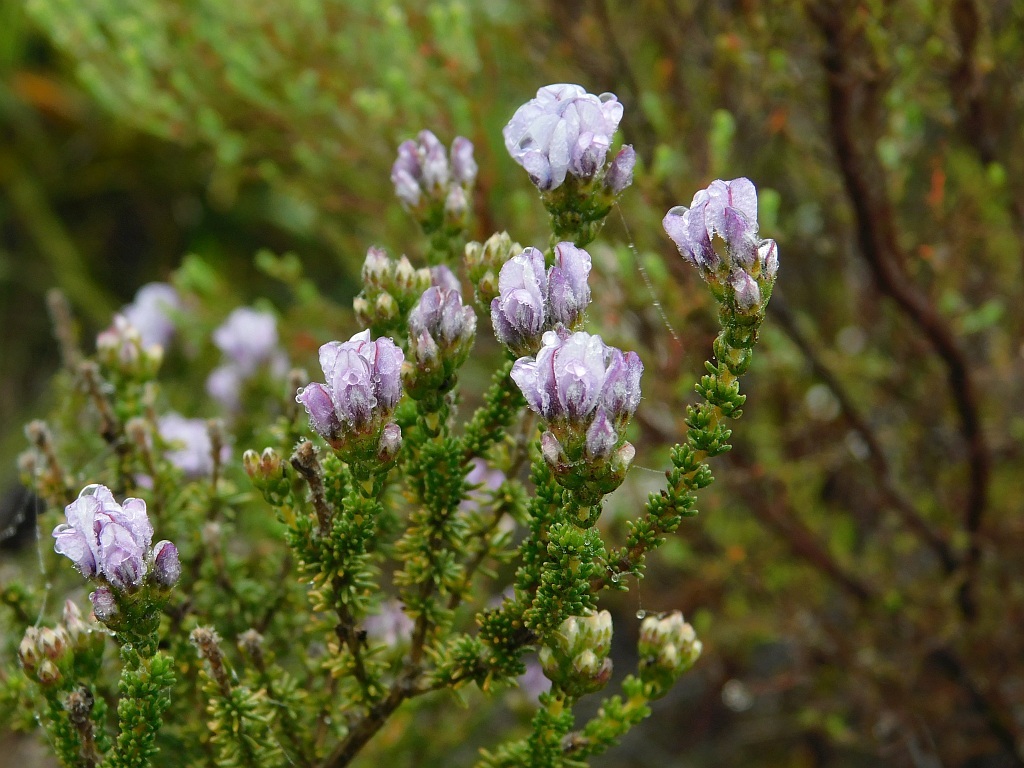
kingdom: Plantae
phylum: Tracheophyta
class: Magnoliopsida
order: Fabales
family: Fabaceae
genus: Aspalathus
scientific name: Aspalathus nigra
